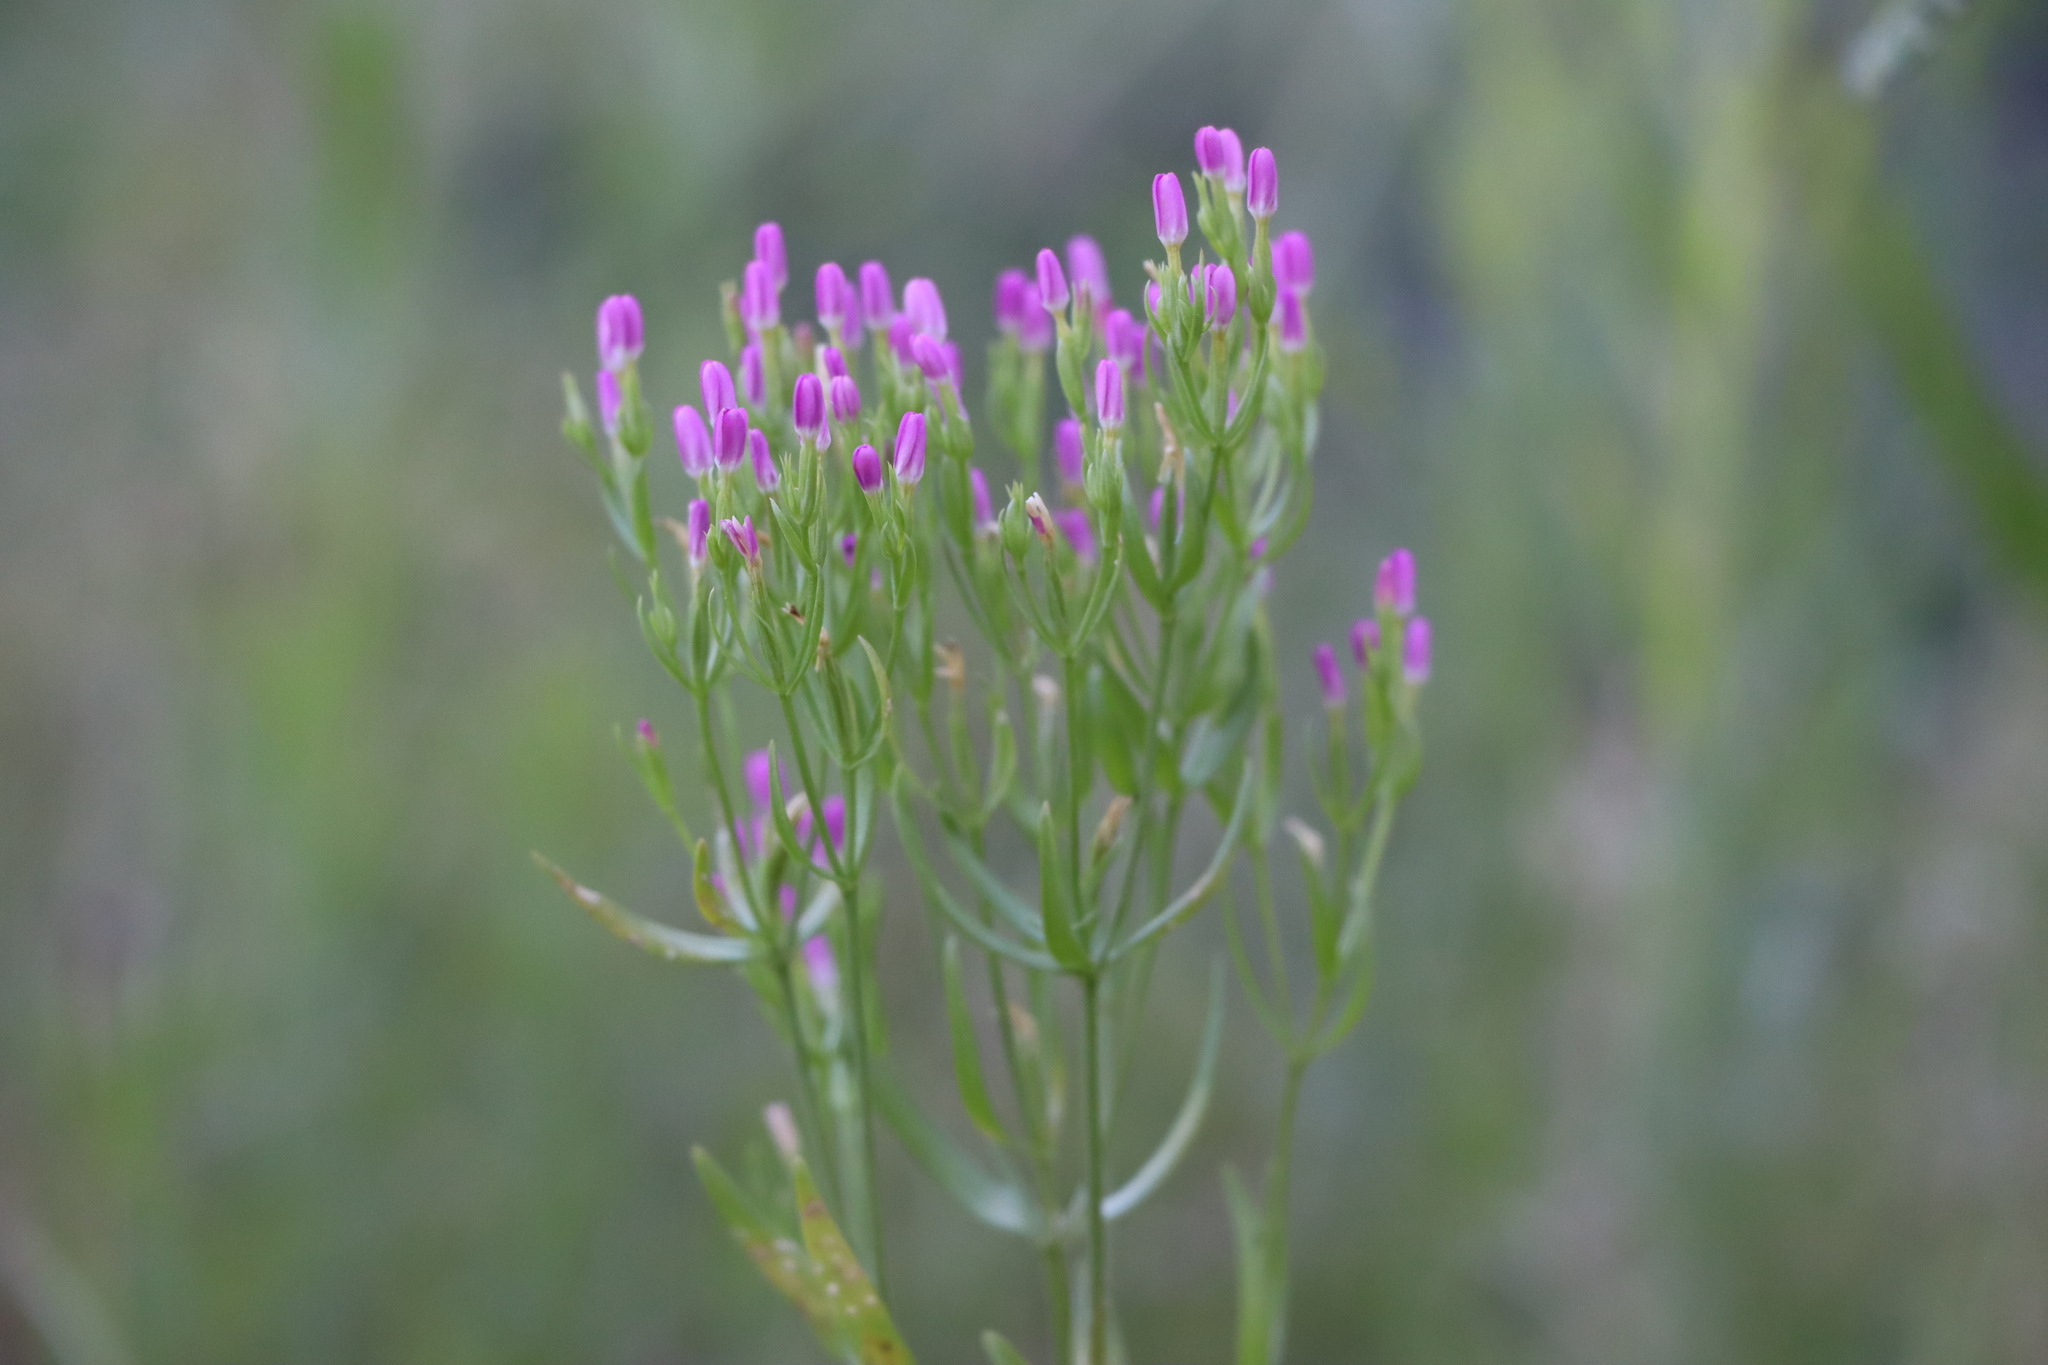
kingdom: Plantae
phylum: Tracheophyta
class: Magnoliopsida
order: Gentianales
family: Gentianaceae
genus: Centaurium
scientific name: Centaurium pulchellum
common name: Lesser centaury
